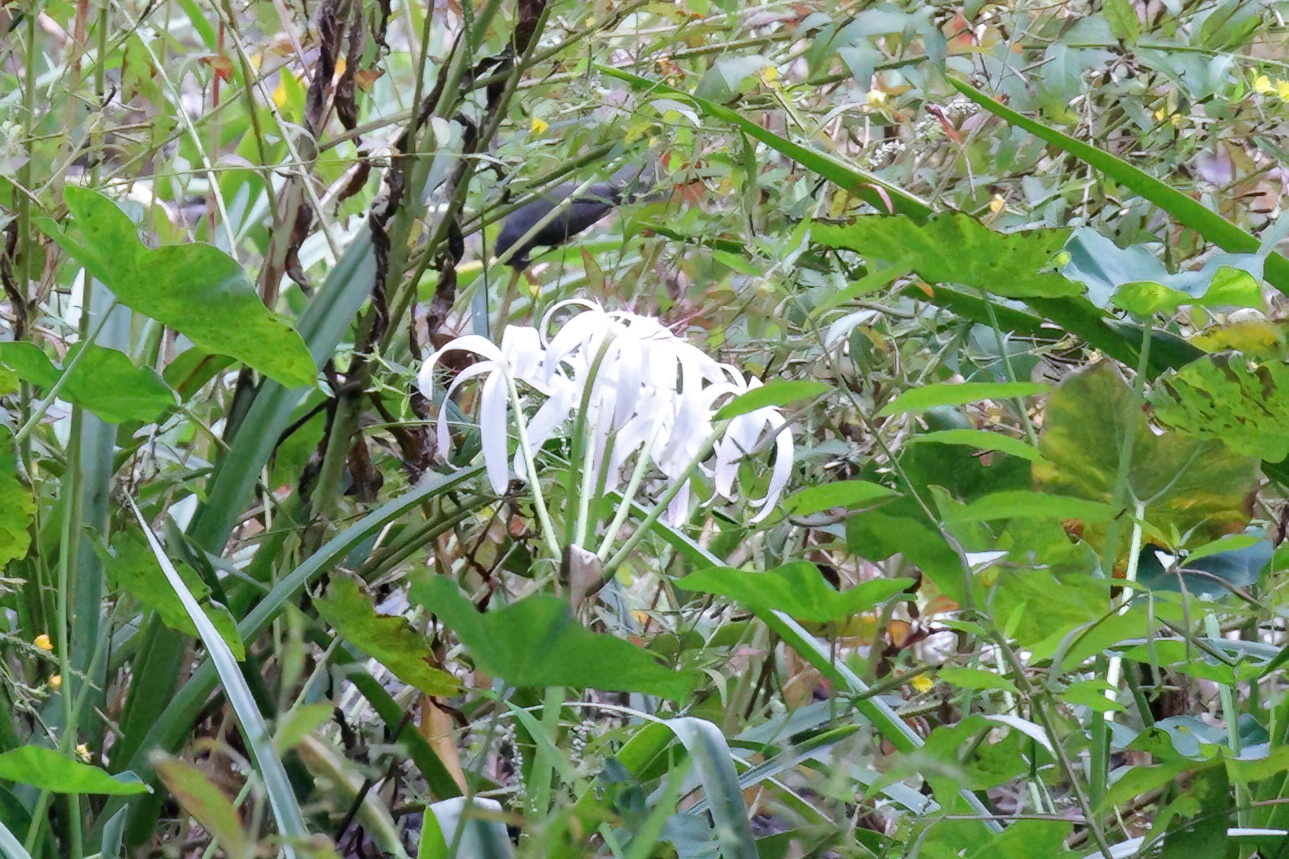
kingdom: Plantae
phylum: Tracheophyta
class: Liliopsida
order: Asparagales
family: Amaryllidaceae
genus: Crinum
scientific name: Crinum americanum
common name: Florida swamp-lily
